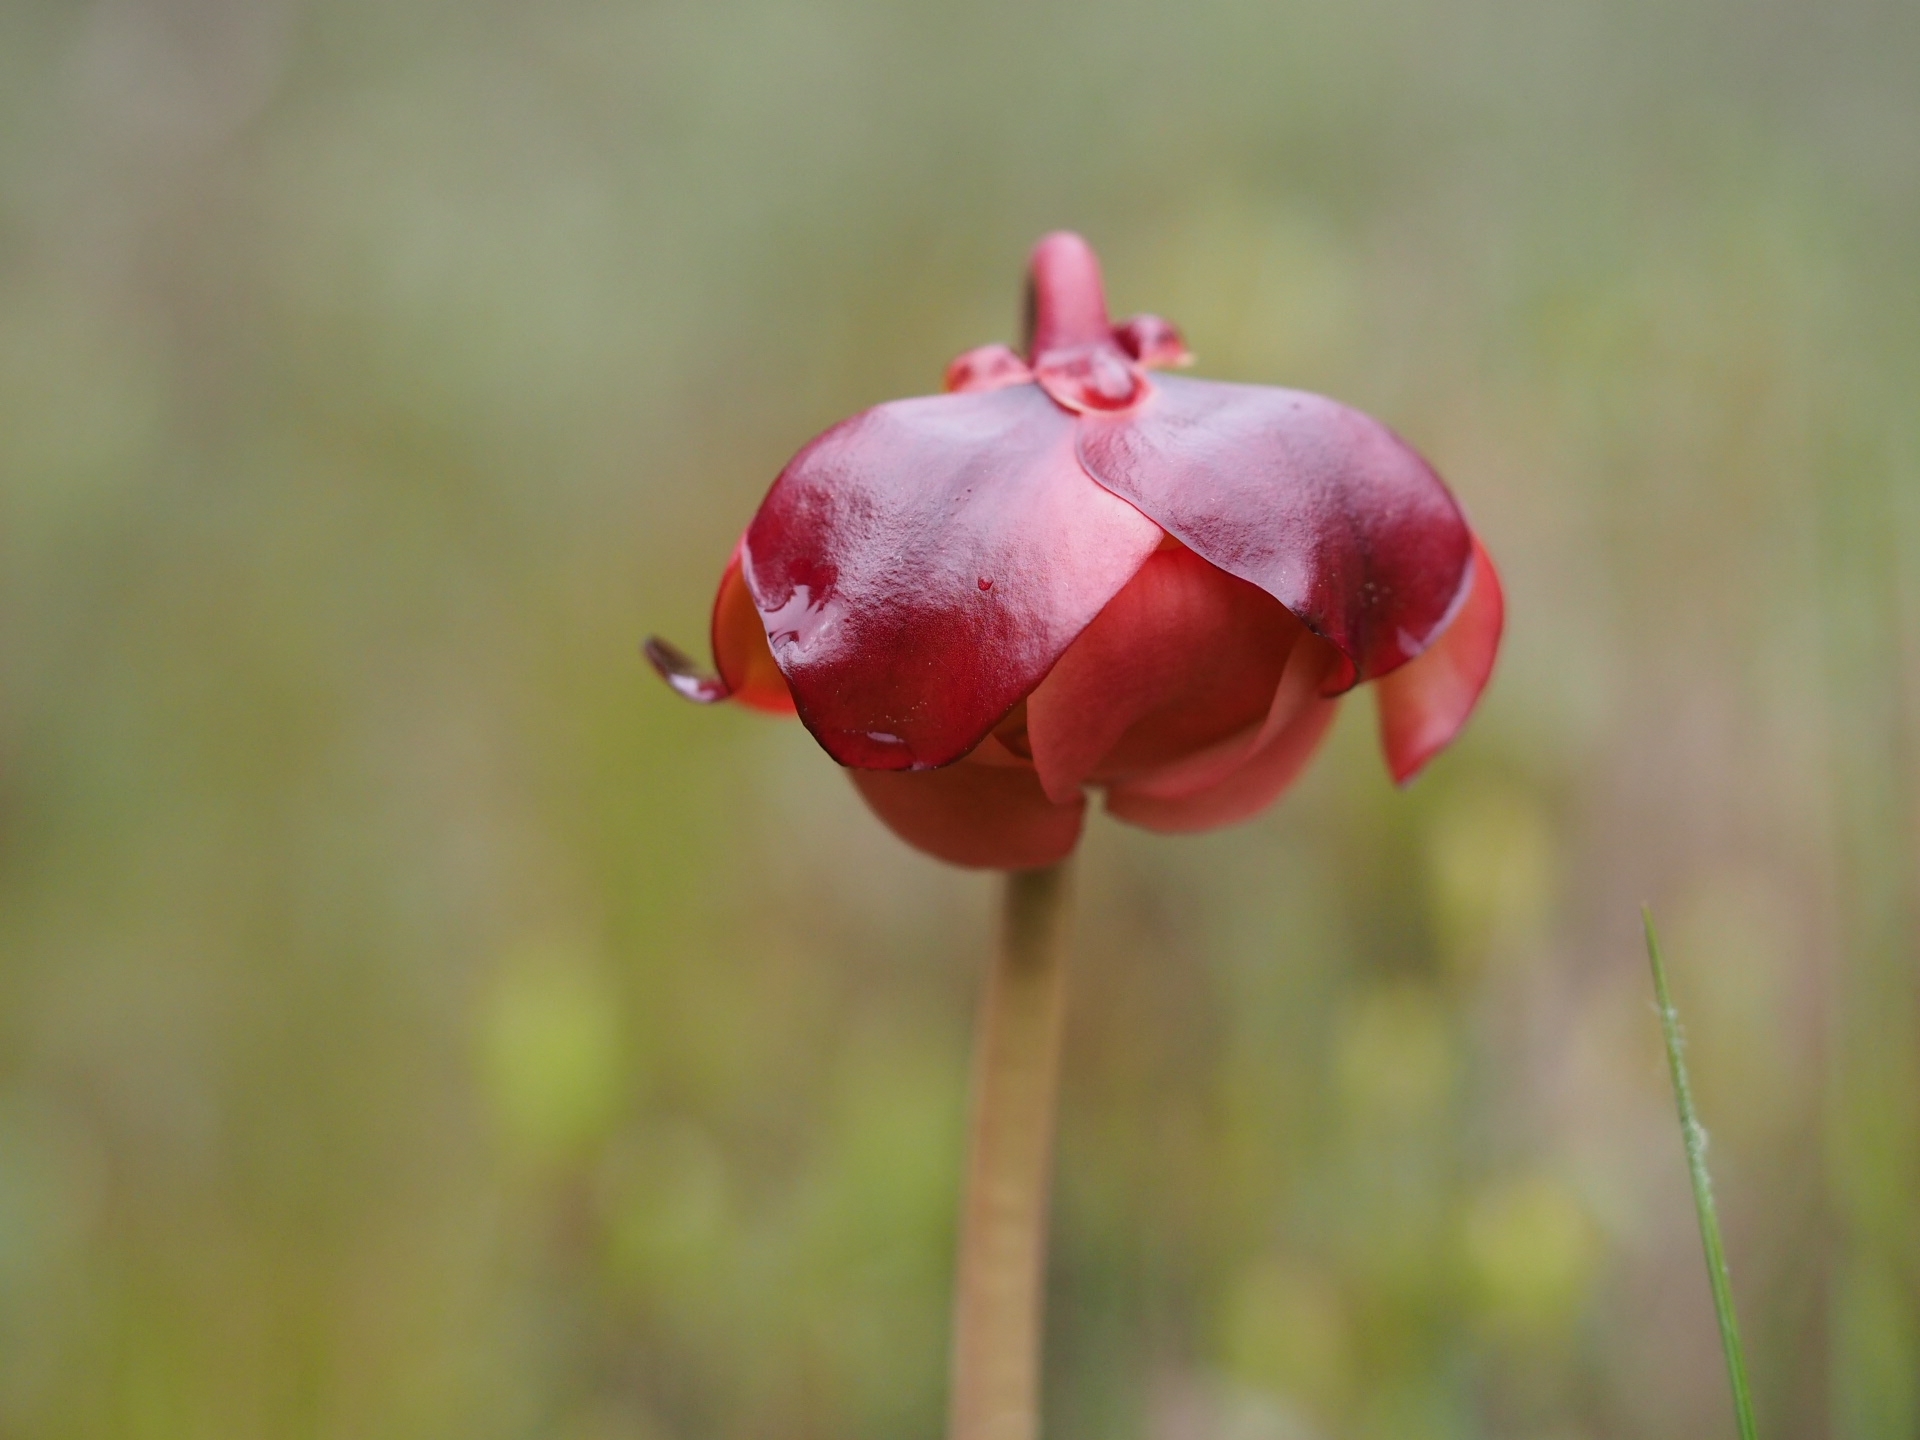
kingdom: Plantae
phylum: Tracheophyta
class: Magnoliopsida
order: Ericales
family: Sarraceniaceae
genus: Sarracenia
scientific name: Sarracenia purpurea
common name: Pitcherplant
